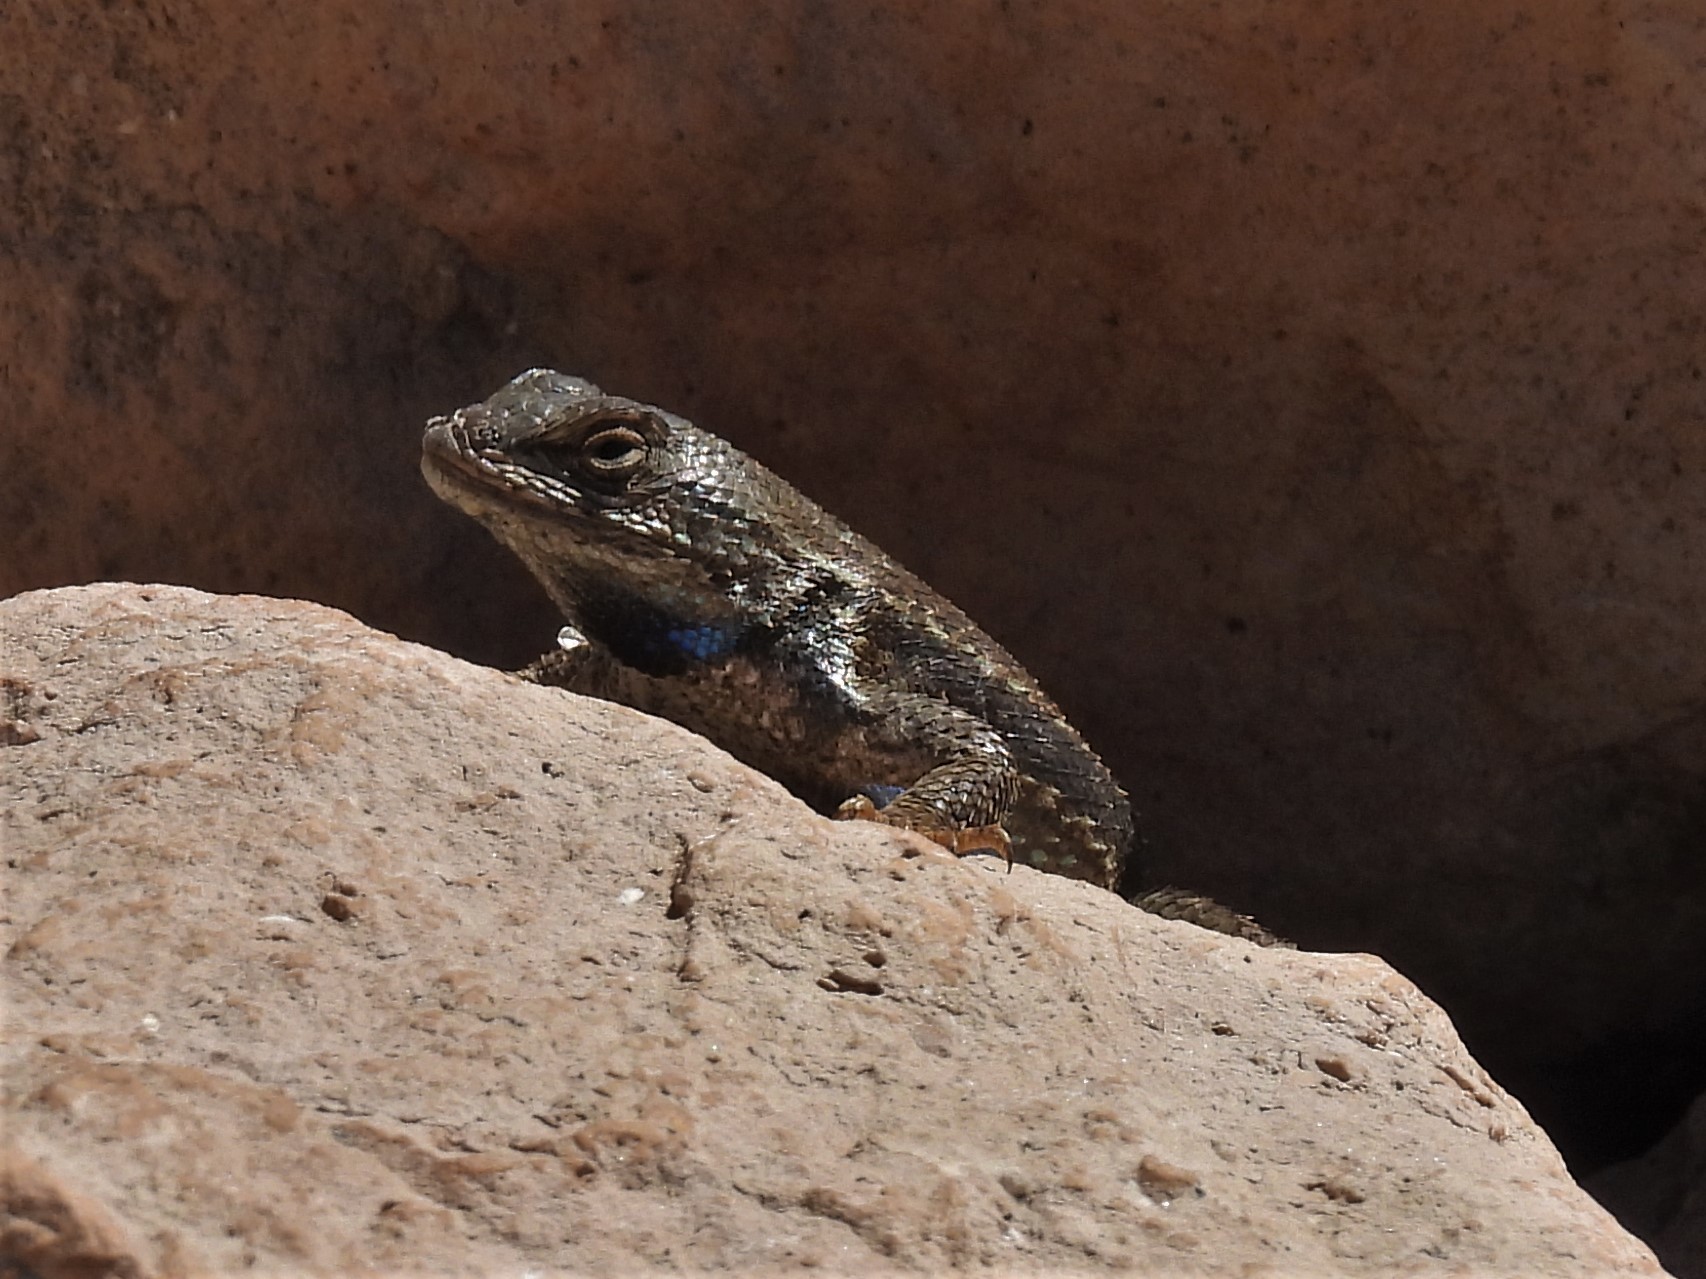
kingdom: Animalia
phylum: Chordata
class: Squamata
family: Phrynosomatidae
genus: Sceloporus
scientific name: Sceloporus tristichus
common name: Plateau fence lizard
